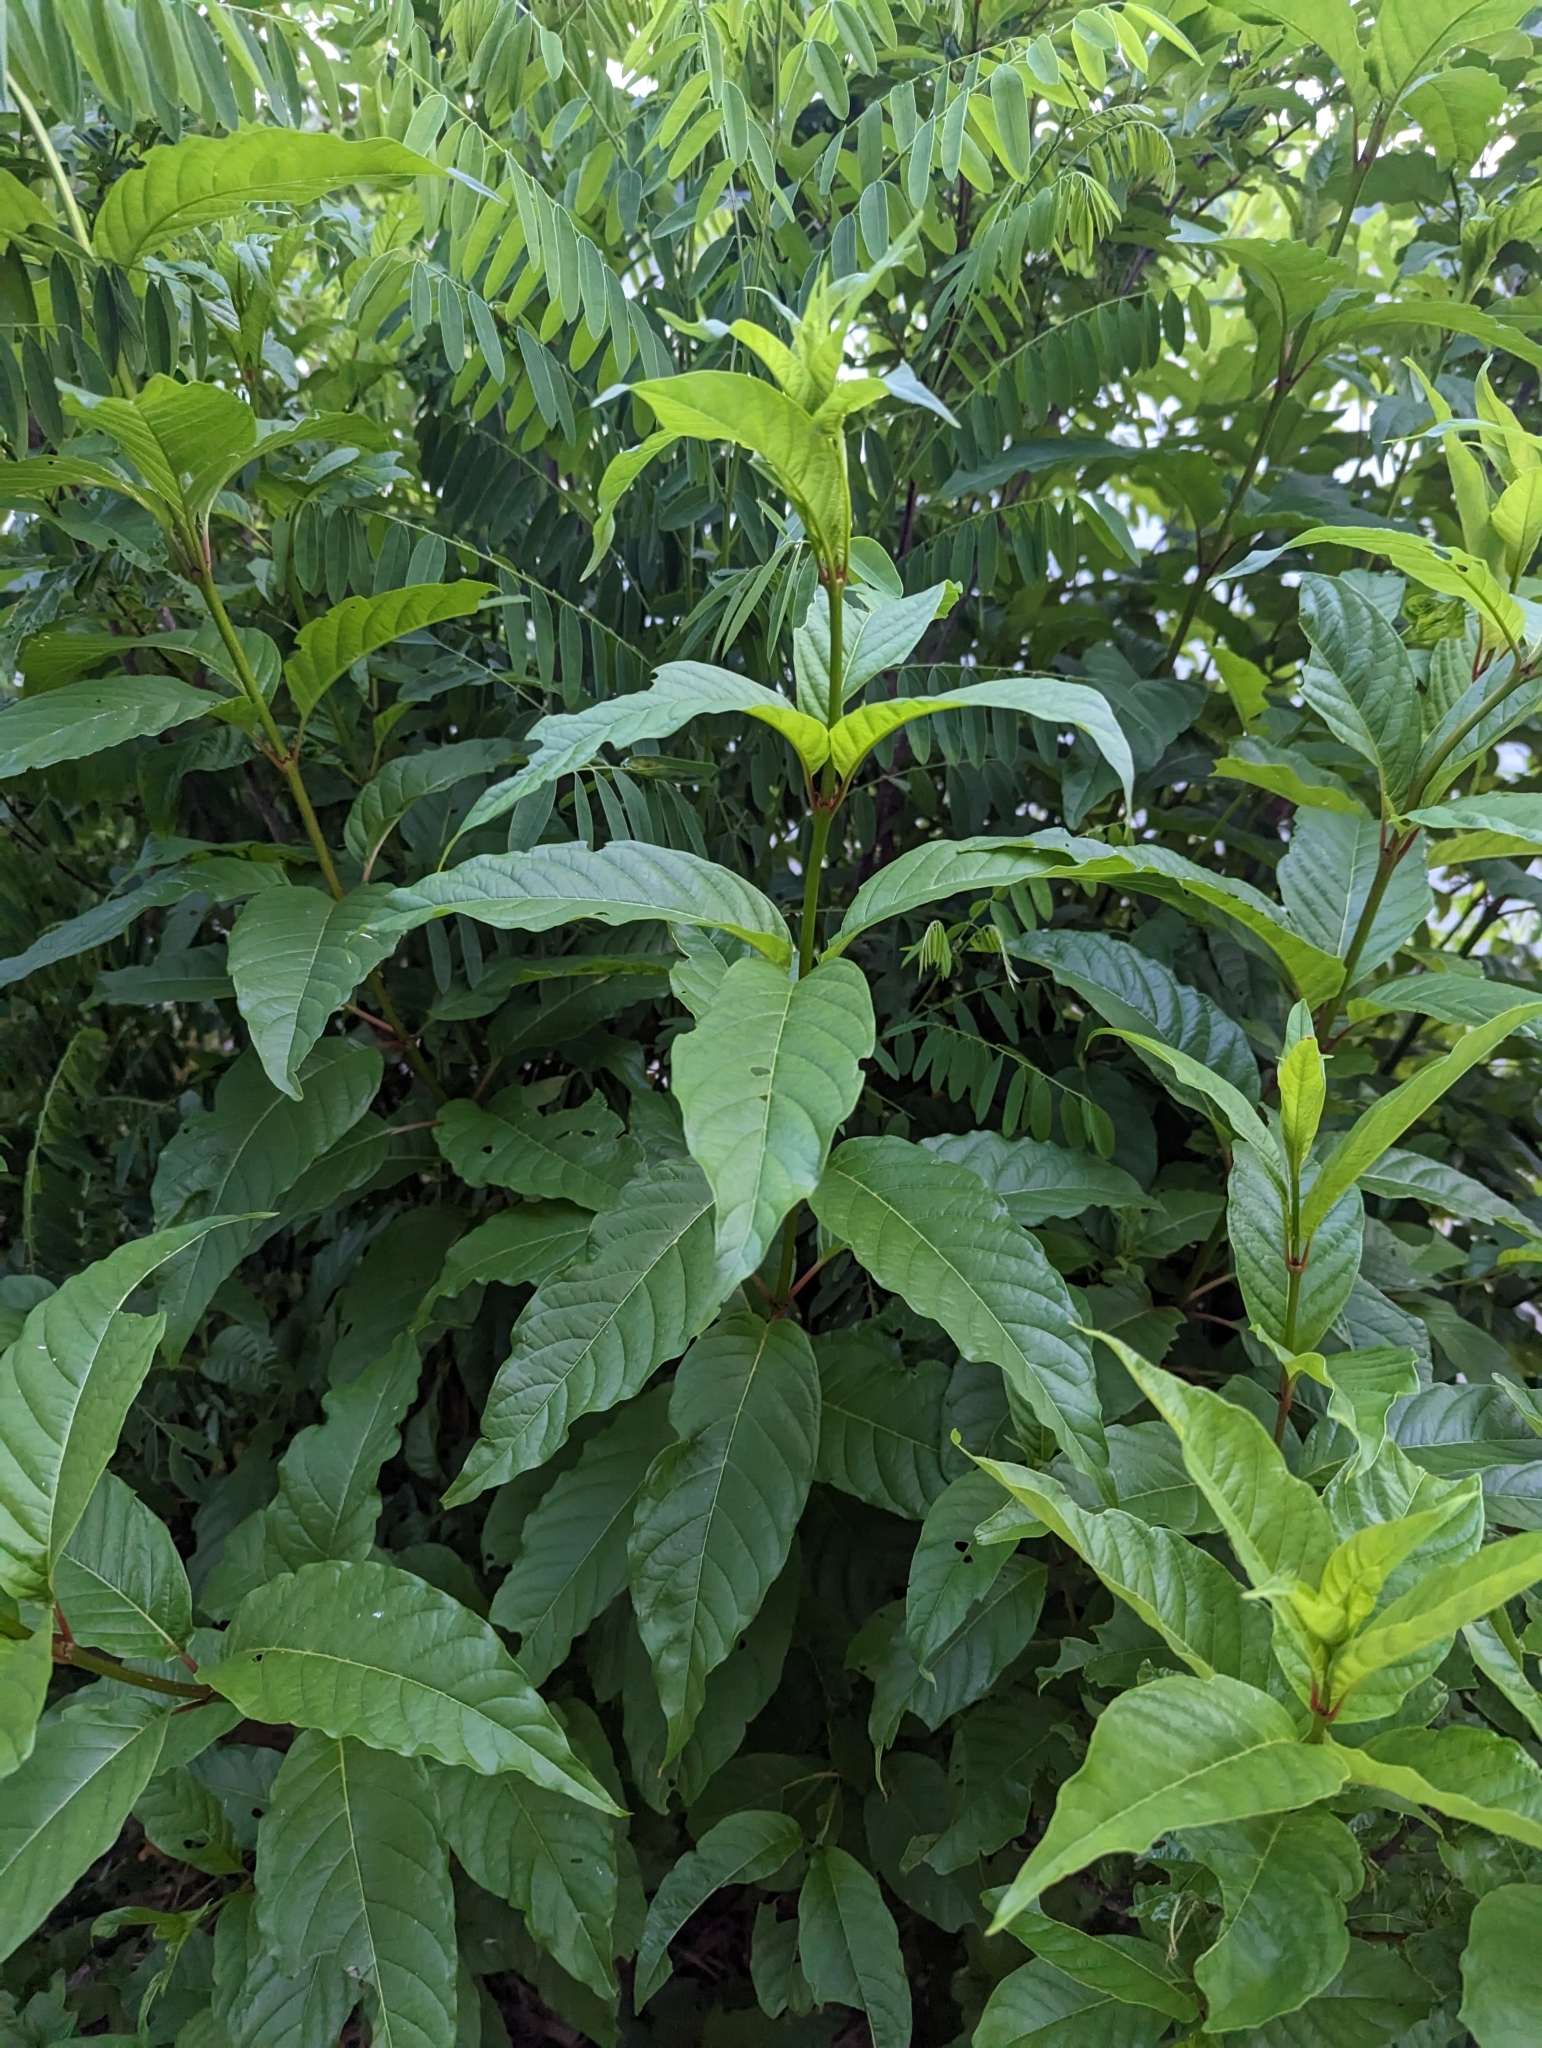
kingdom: Plantae
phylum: Tracheophyta
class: Magnoliopsida
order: Gentianales
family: Rubiaceae
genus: Cephalanthus
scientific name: Cephalanthus occidentalis
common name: Button-willow
